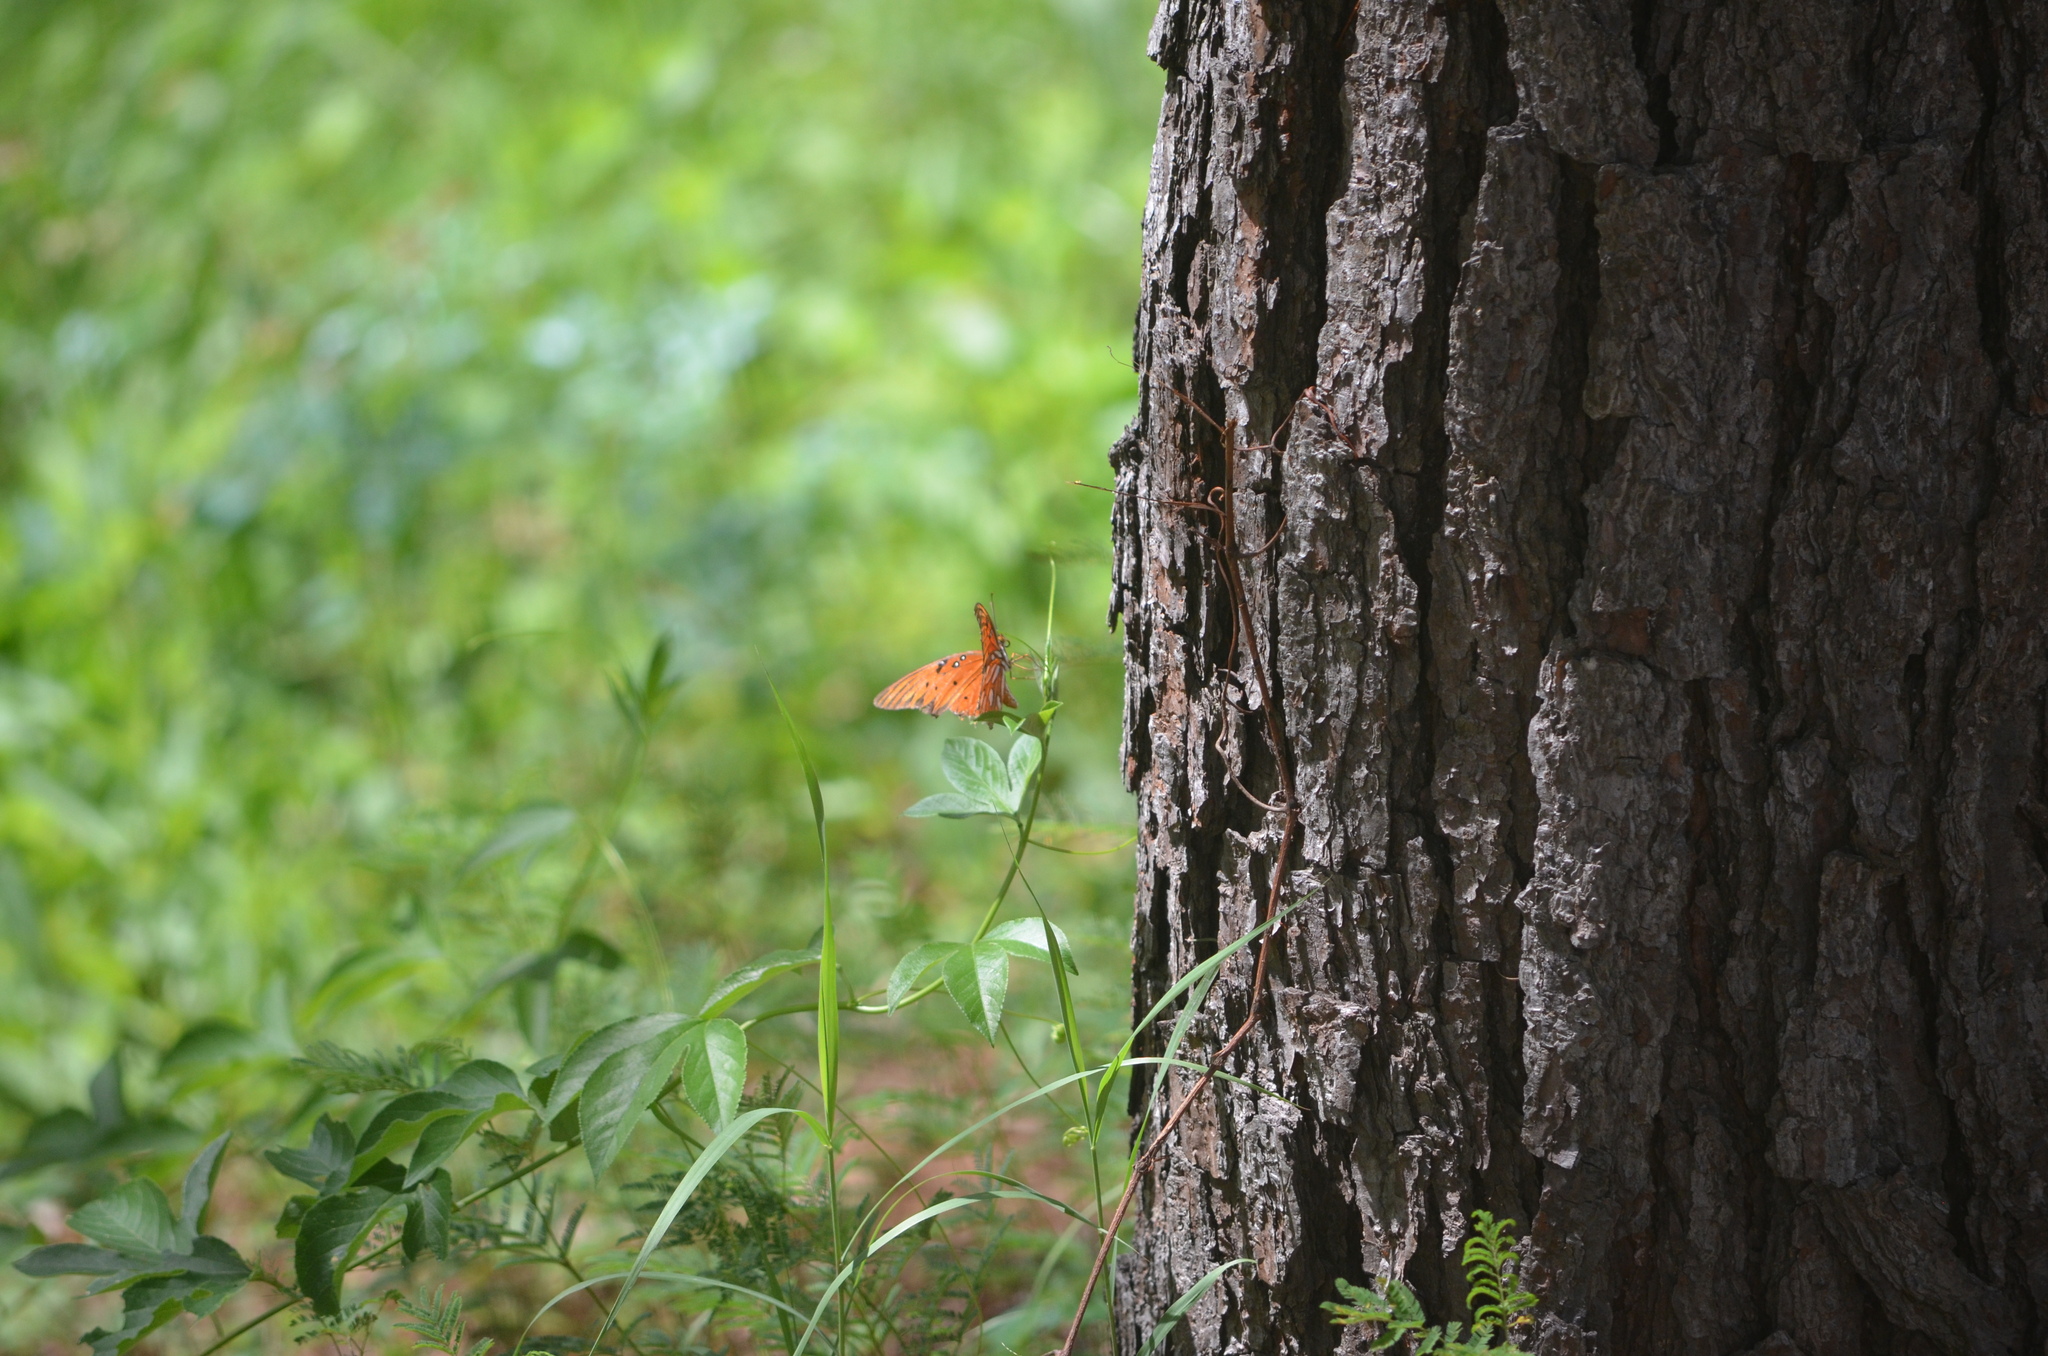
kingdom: Animalia
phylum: Arthropoda
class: Insecta
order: Lepidoptera
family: Nymphalidae
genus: Dione
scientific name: Dione vanillae
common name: Gulf fritillary
